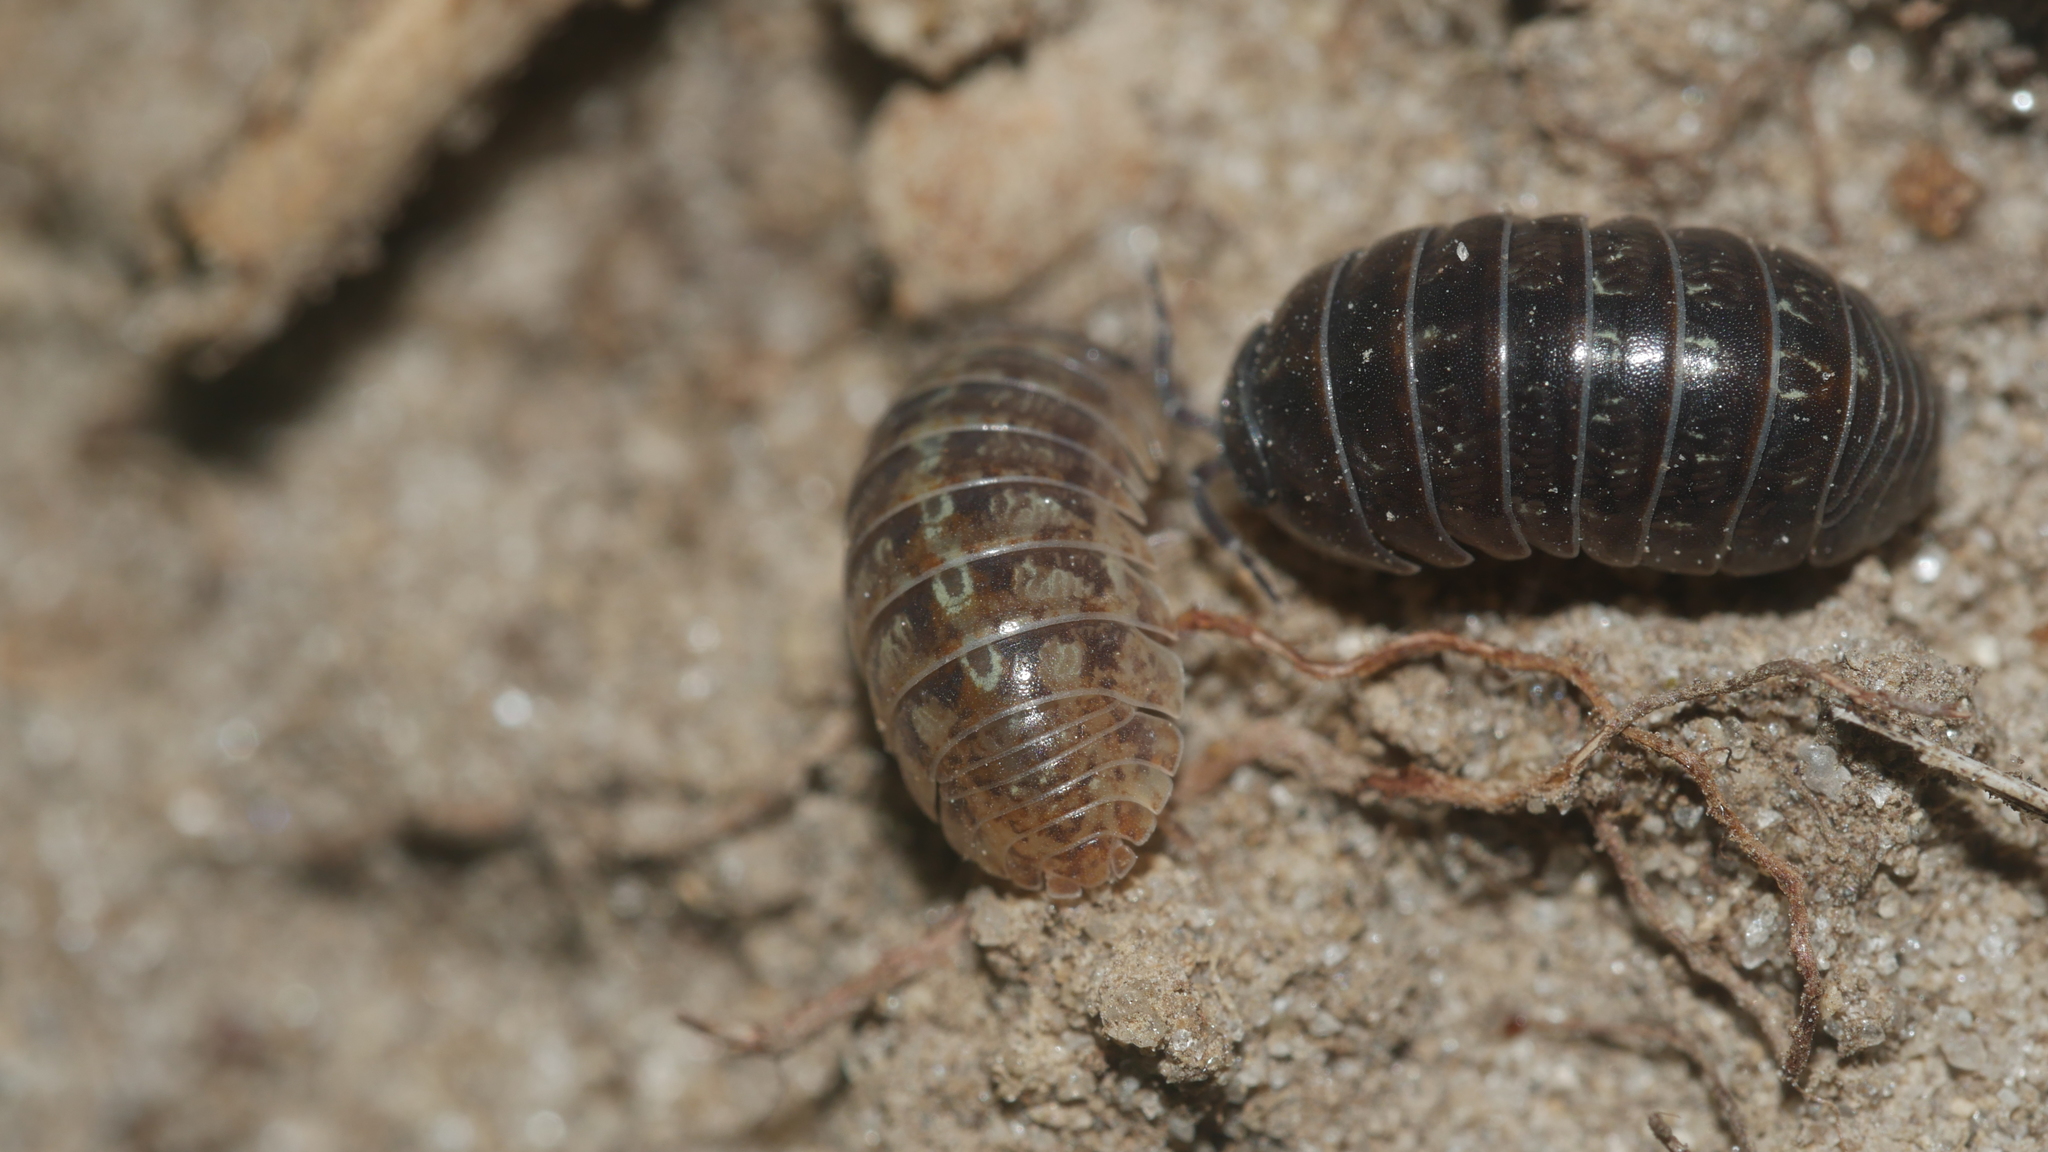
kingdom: Animalia
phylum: Arthropoda
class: Malacostraca
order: Isopoda
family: Armadillidiidae
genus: Armadillidium
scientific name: Armadillidium vulgare
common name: Common pill woodlouse
